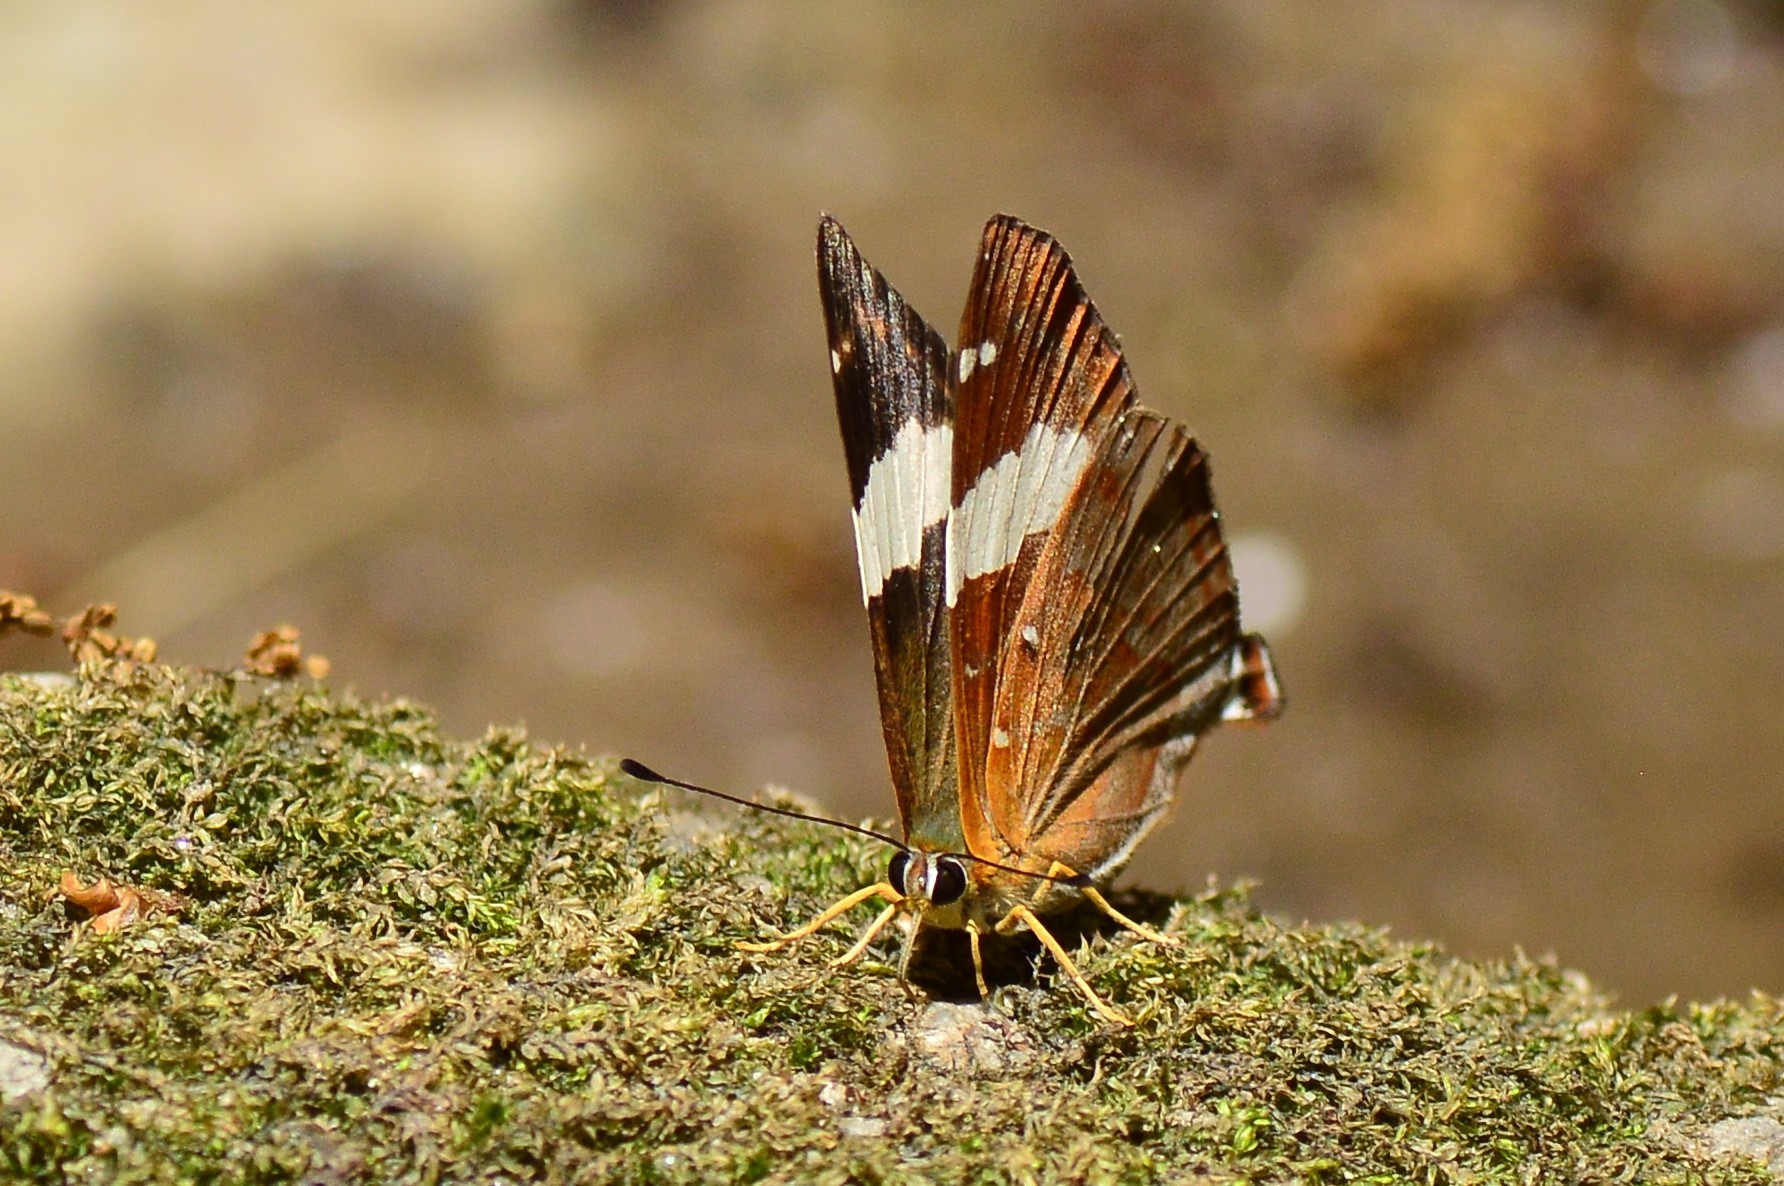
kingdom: Animalia
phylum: Arthropoda
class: Insecta
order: Lepidoptera
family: Lycaenidae
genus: Dodona
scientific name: Dodona ouida
